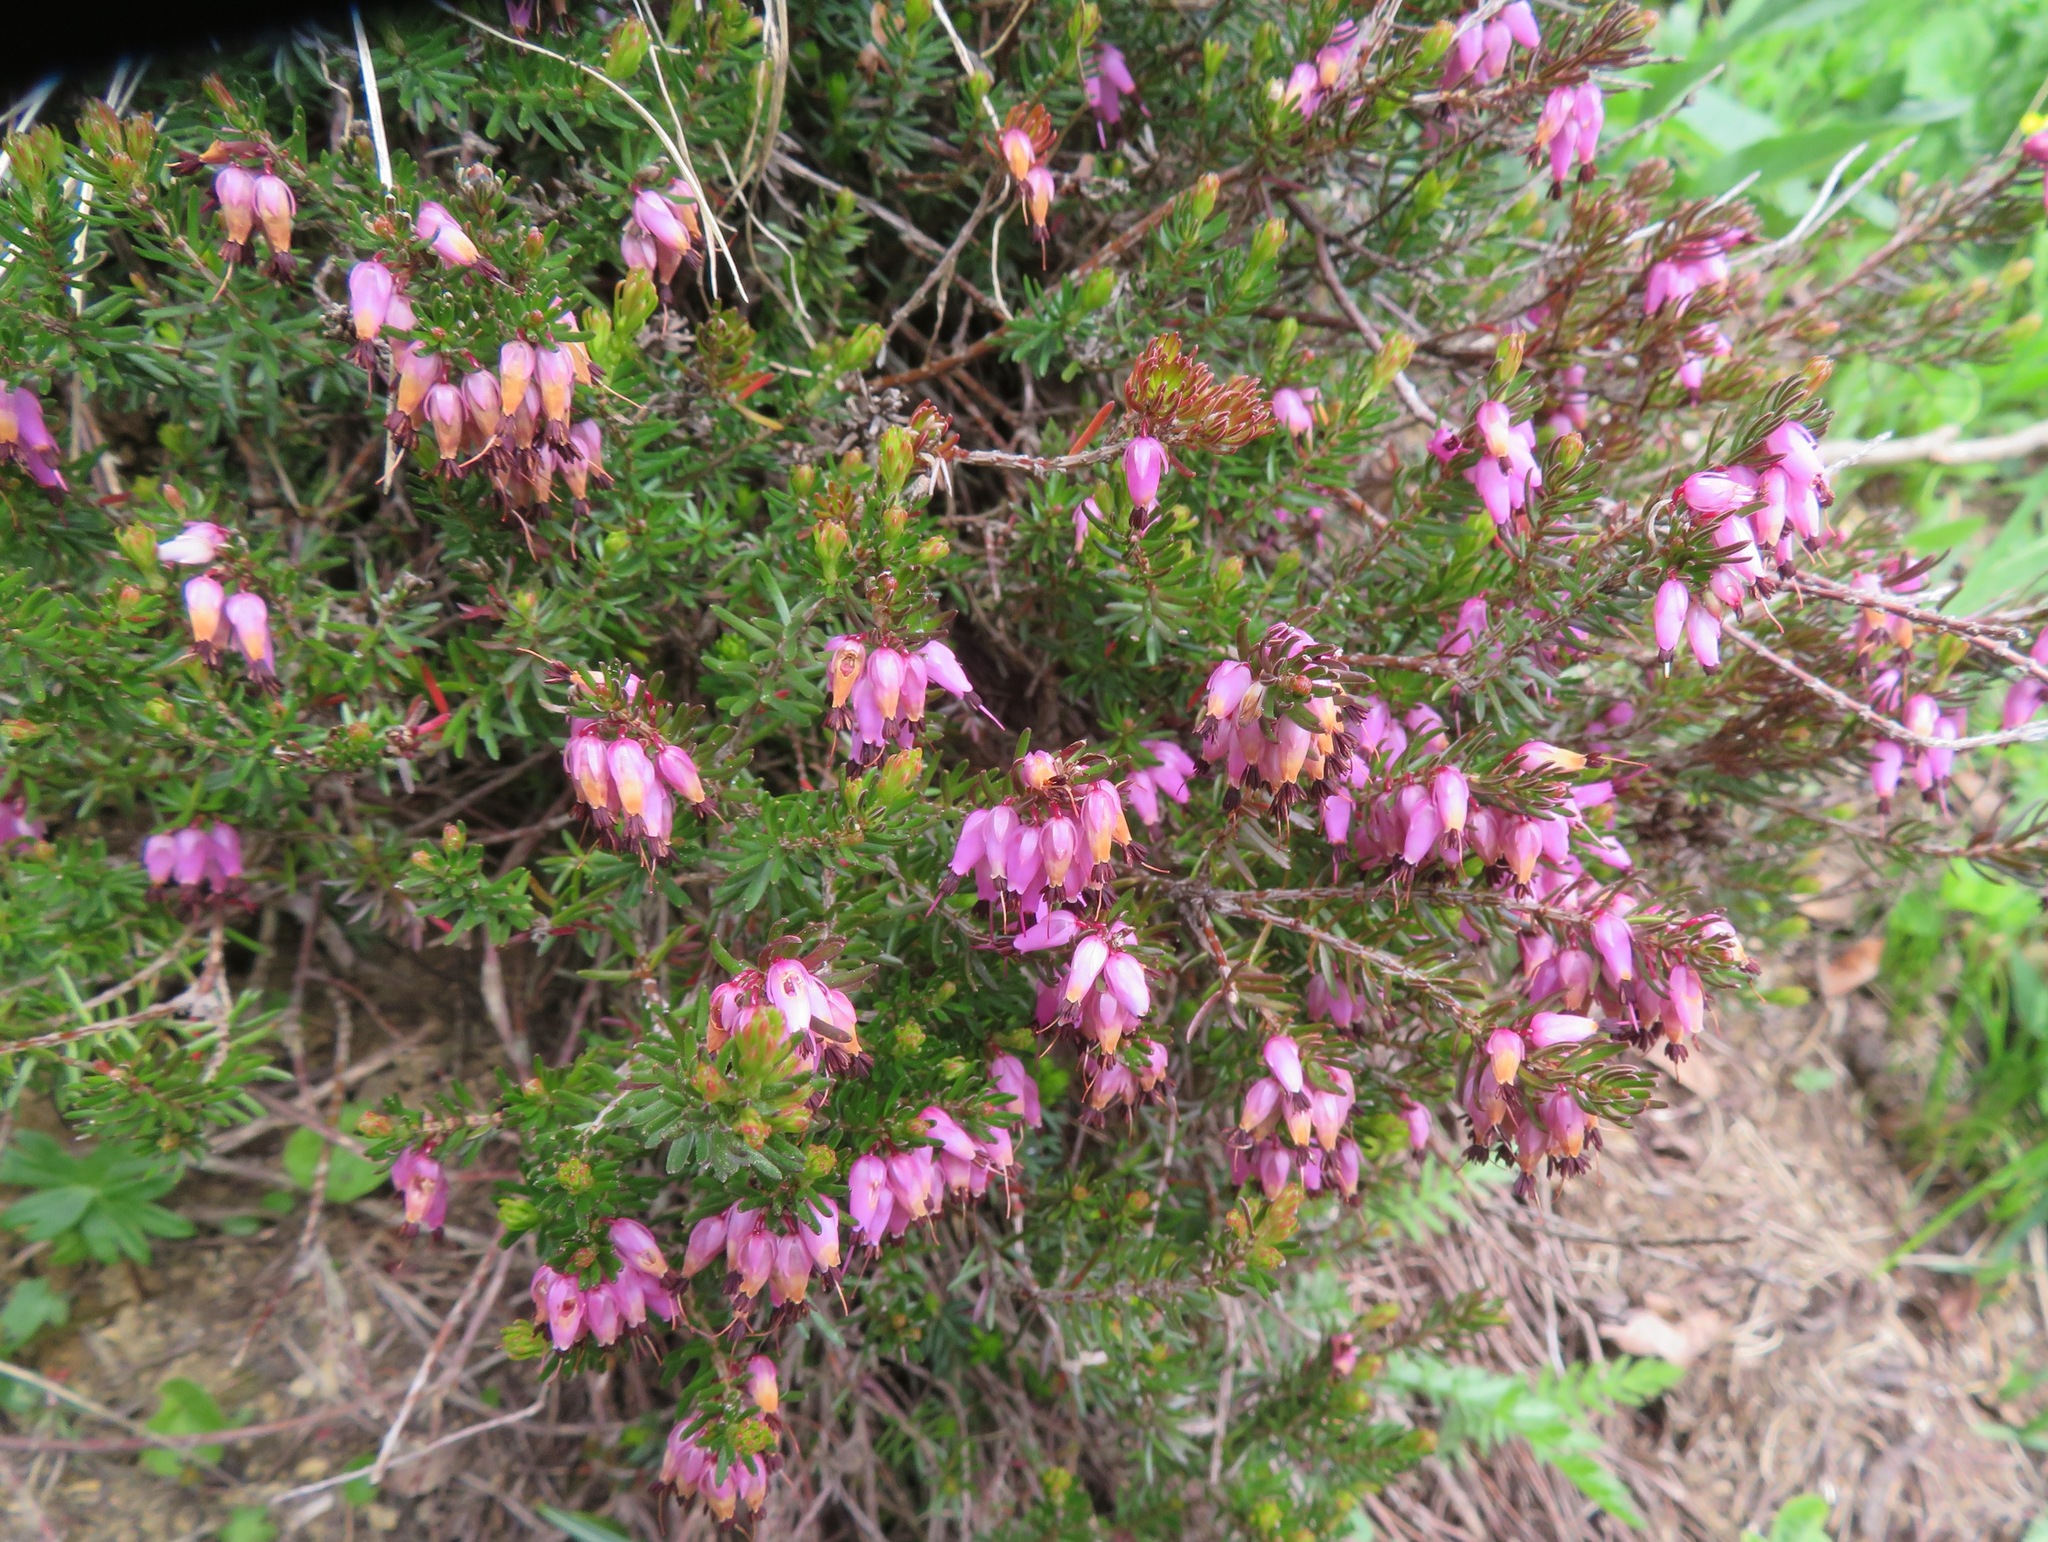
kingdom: Plantae
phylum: Tracheophyta
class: Magnoliopsida
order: Ericales
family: Ericaceae
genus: Erica
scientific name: Erica carnea
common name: Winter heath
